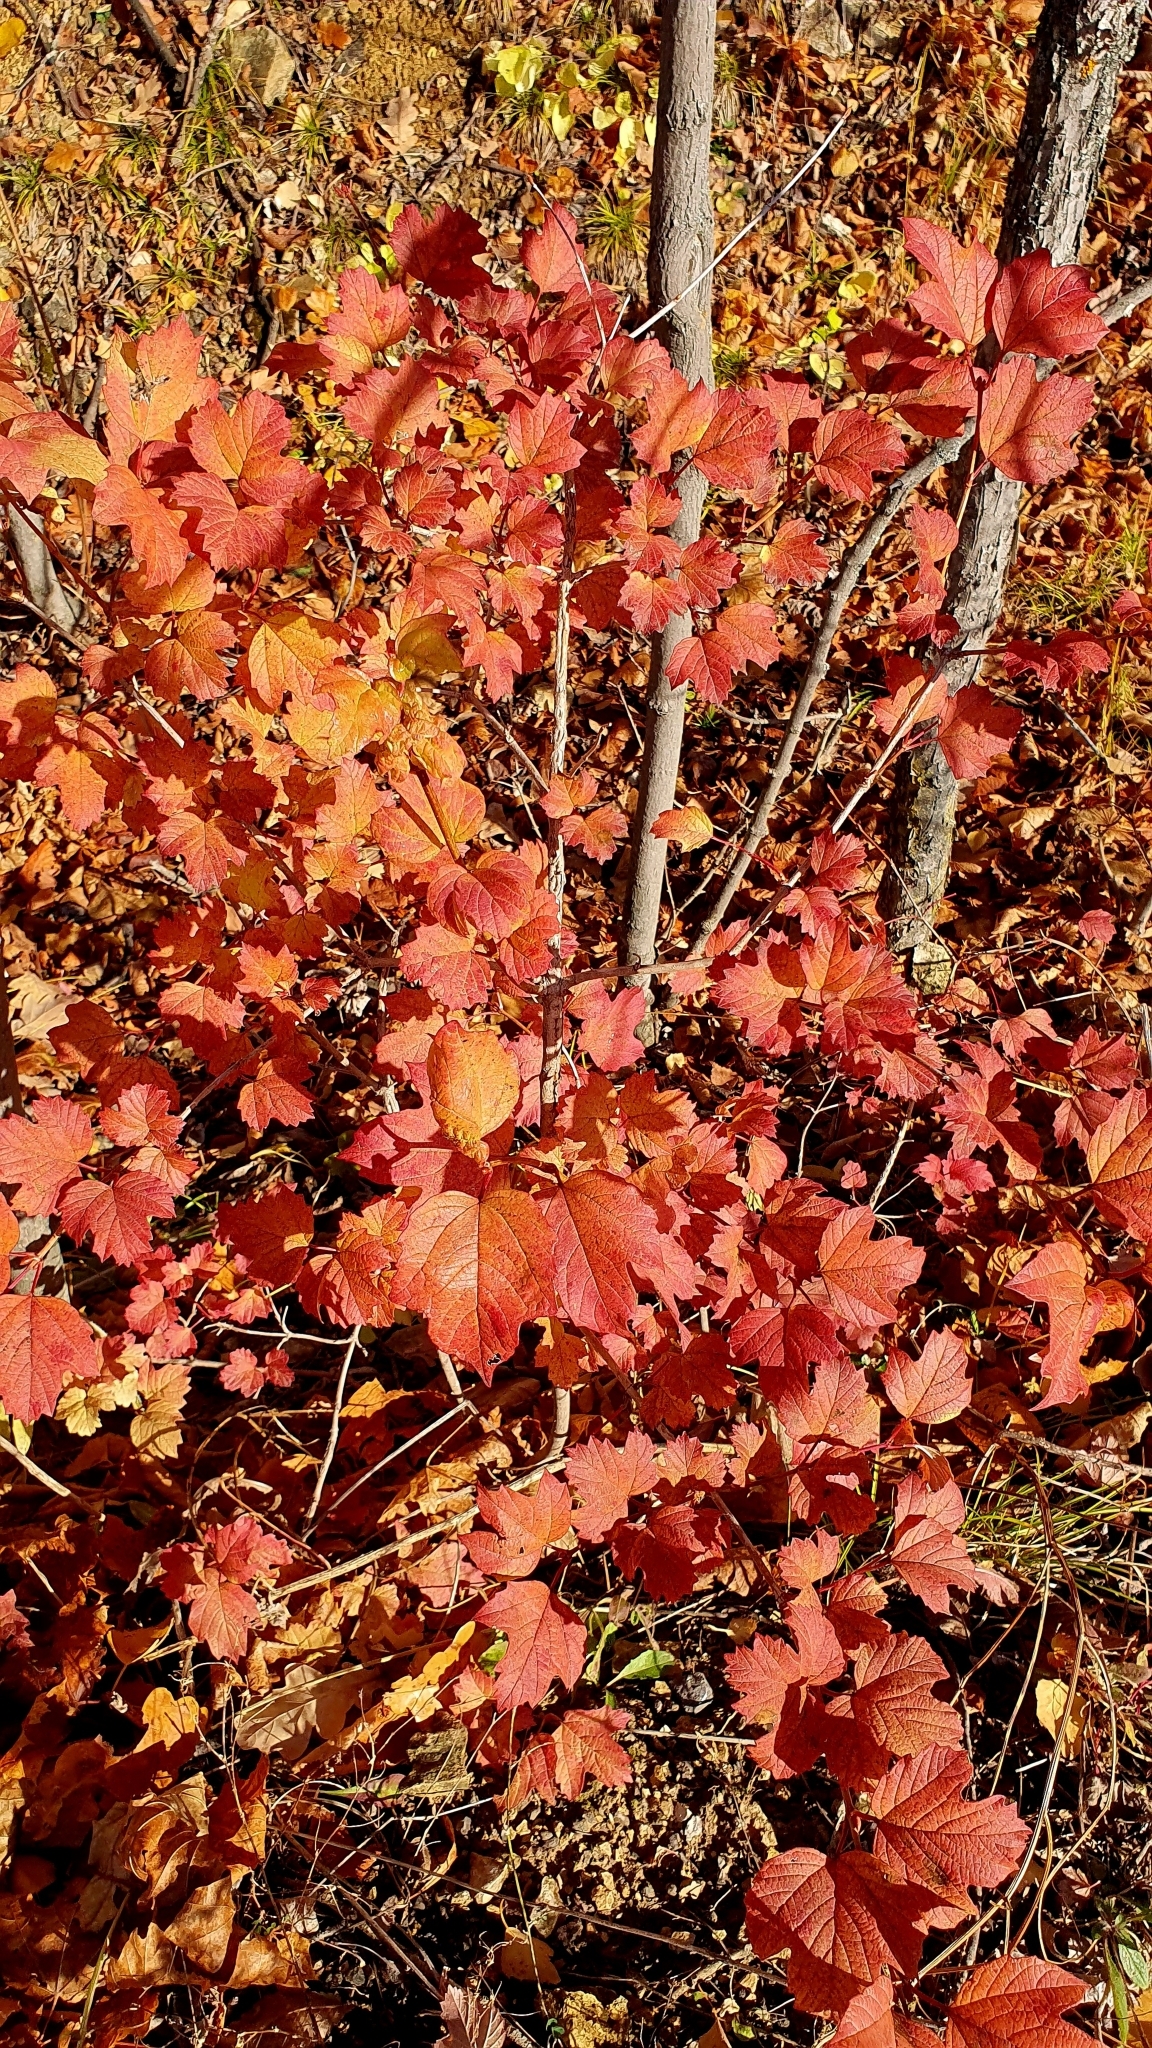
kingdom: Plantae
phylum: Tracheophyta
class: Magnoliopsida
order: Dipsacales
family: Viburnaceae
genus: Viburnum
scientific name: Viburnum opulus
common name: Guelder-rose
